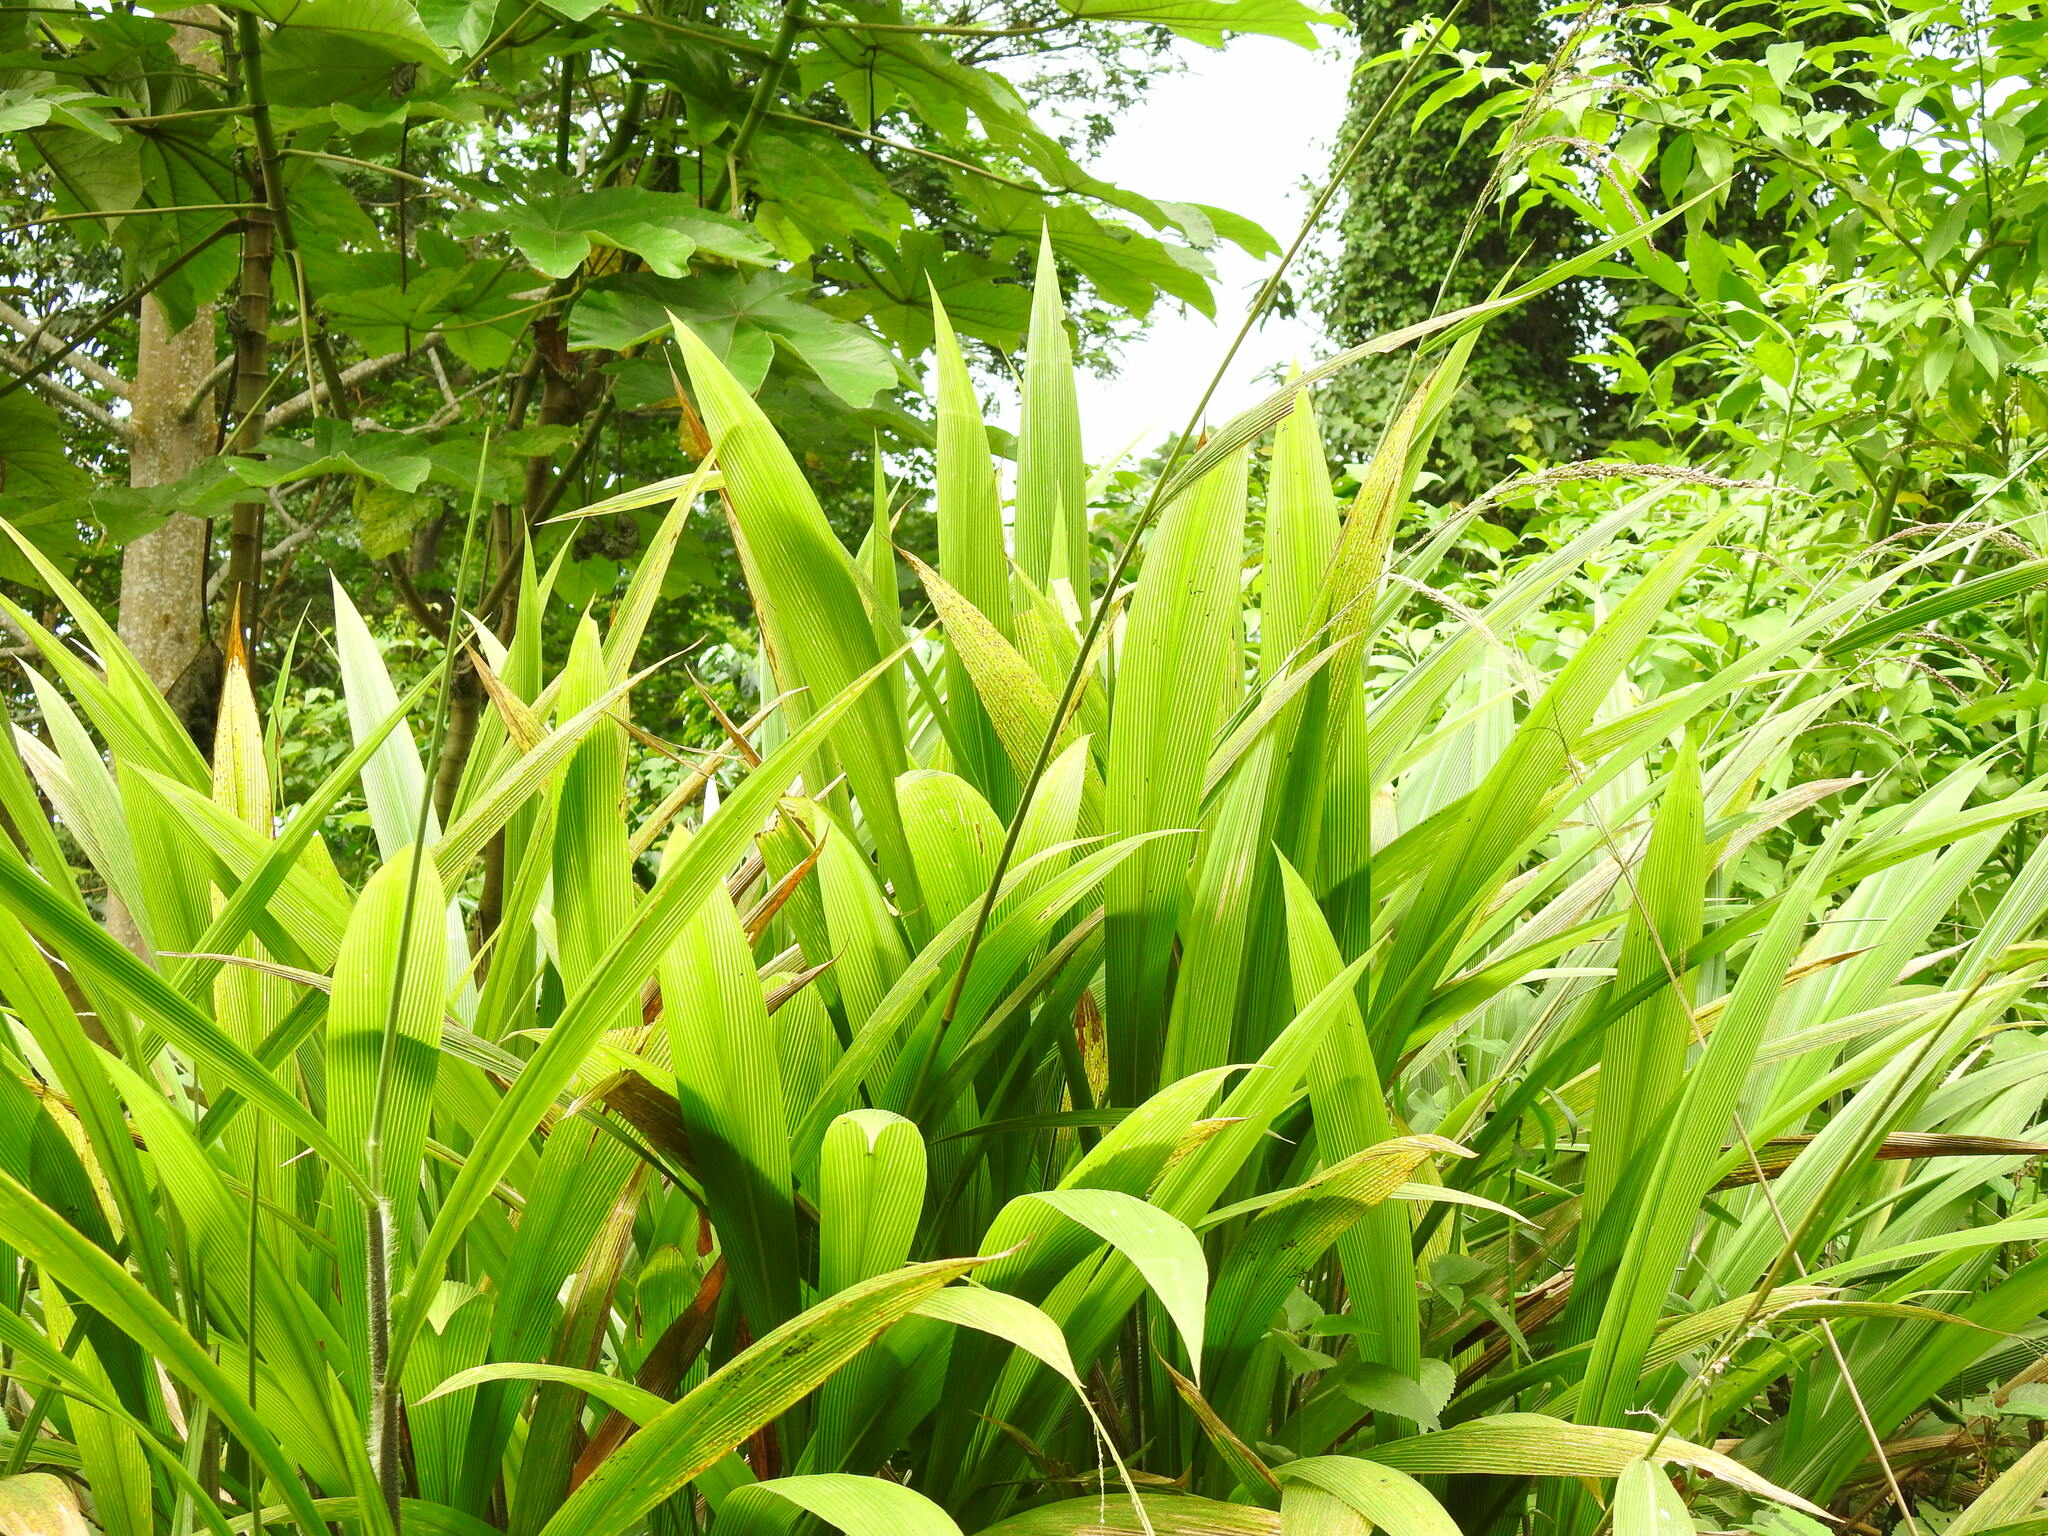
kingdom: Plantae
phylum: Tracheophyta
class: Liliopsida
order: Poales
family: Poaceae
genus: Setaria
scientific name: Setaria megaphylla
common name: Bigleaf bristlegrass
